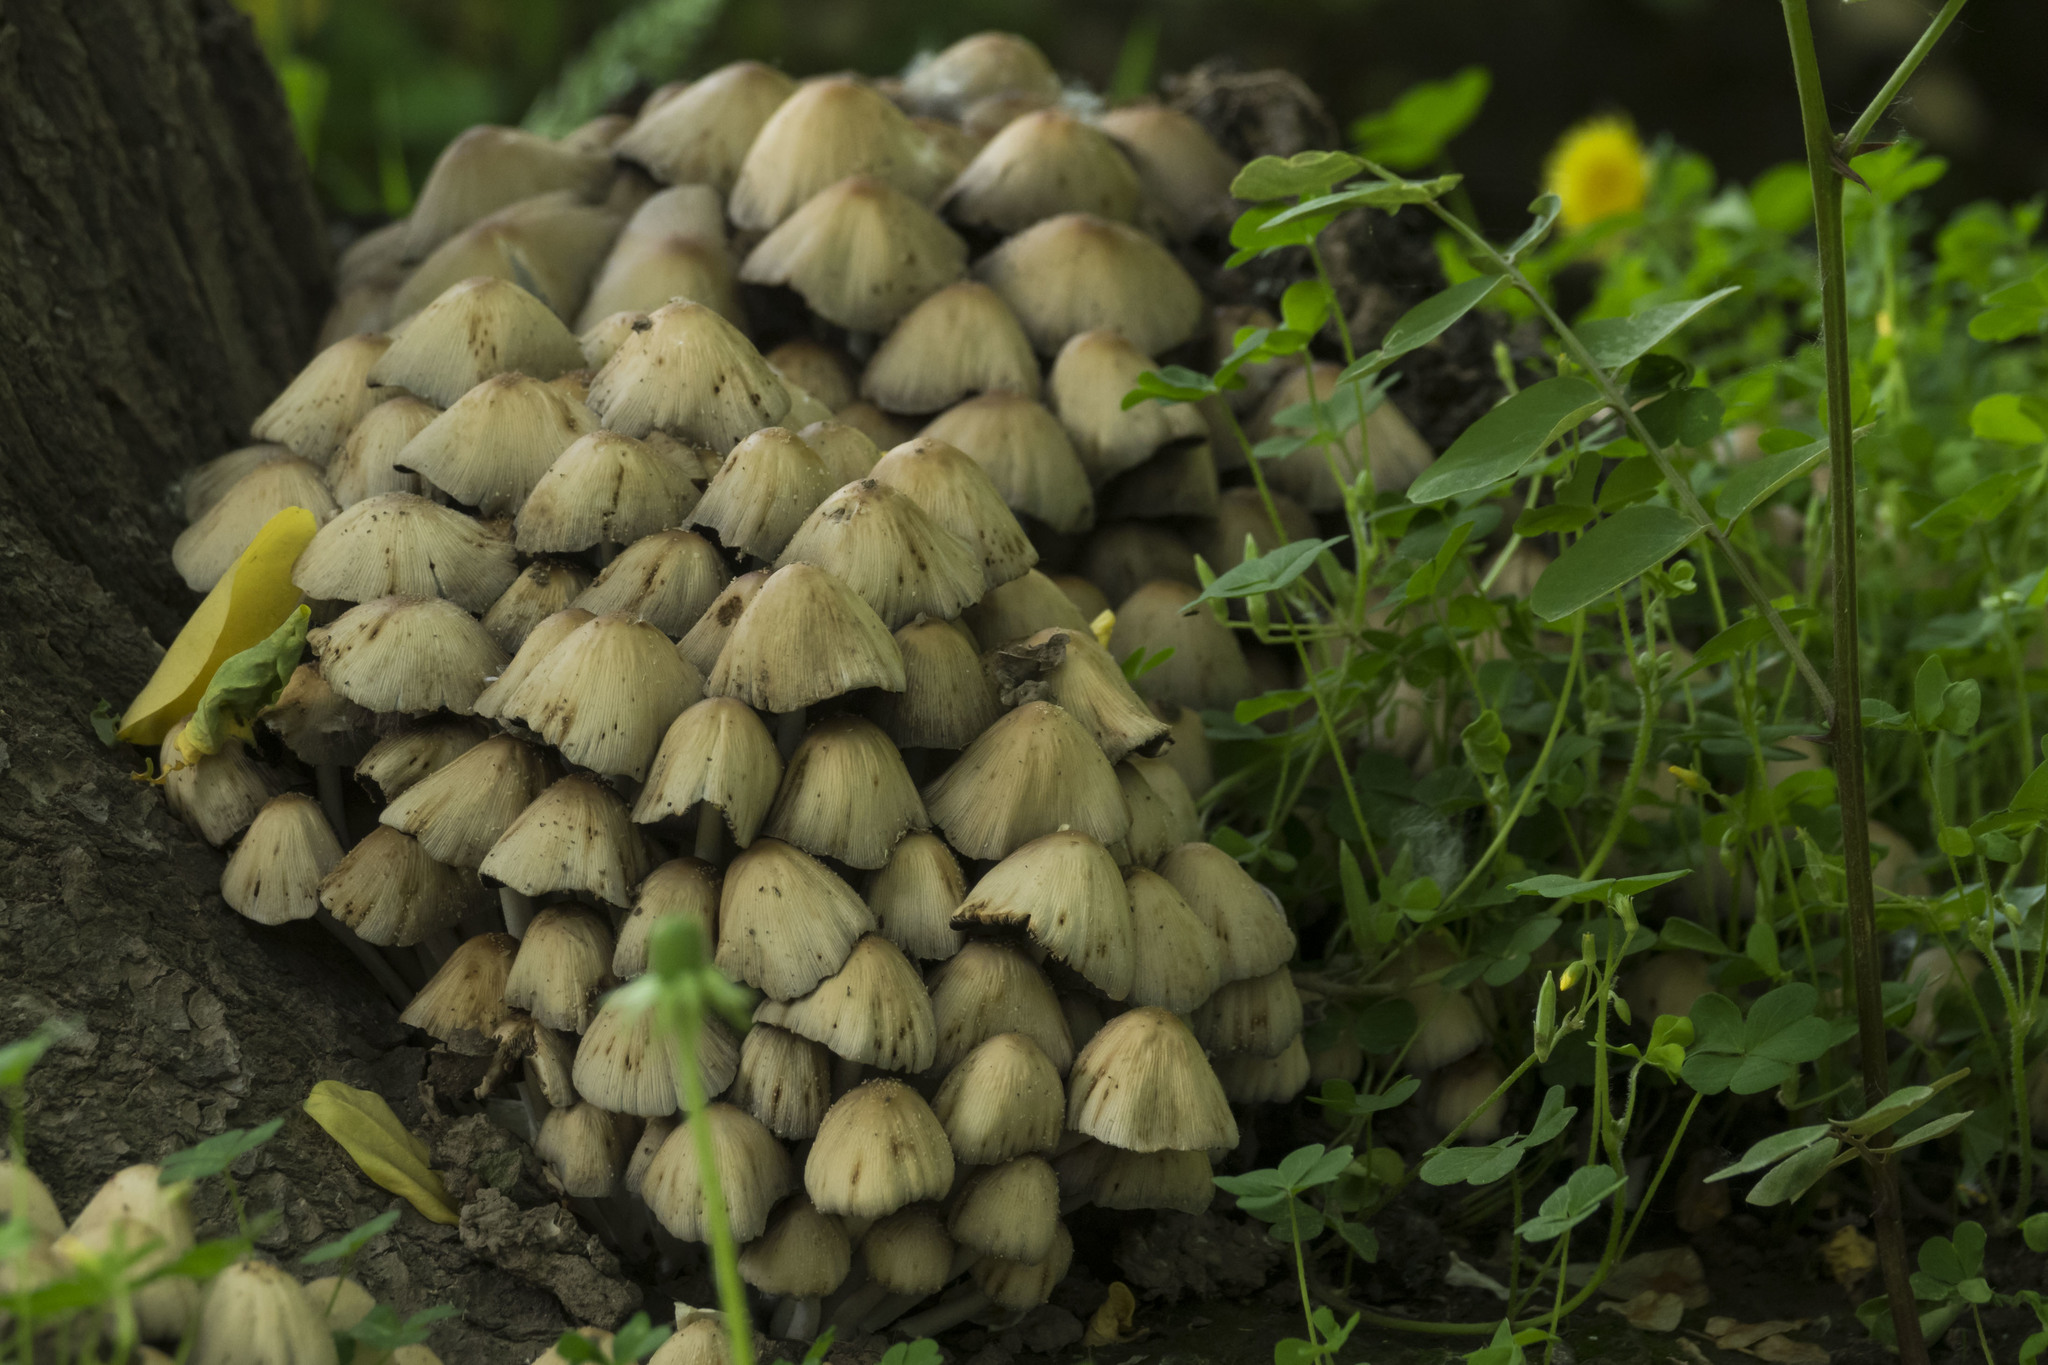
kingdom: Fungi
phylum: Basidiomycota
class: Agaricomycetes
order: Agaricales
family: Psathyrellaceae
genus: Coprinellus
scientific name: Coprinellus micaceus
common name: Glistening ink-cap
